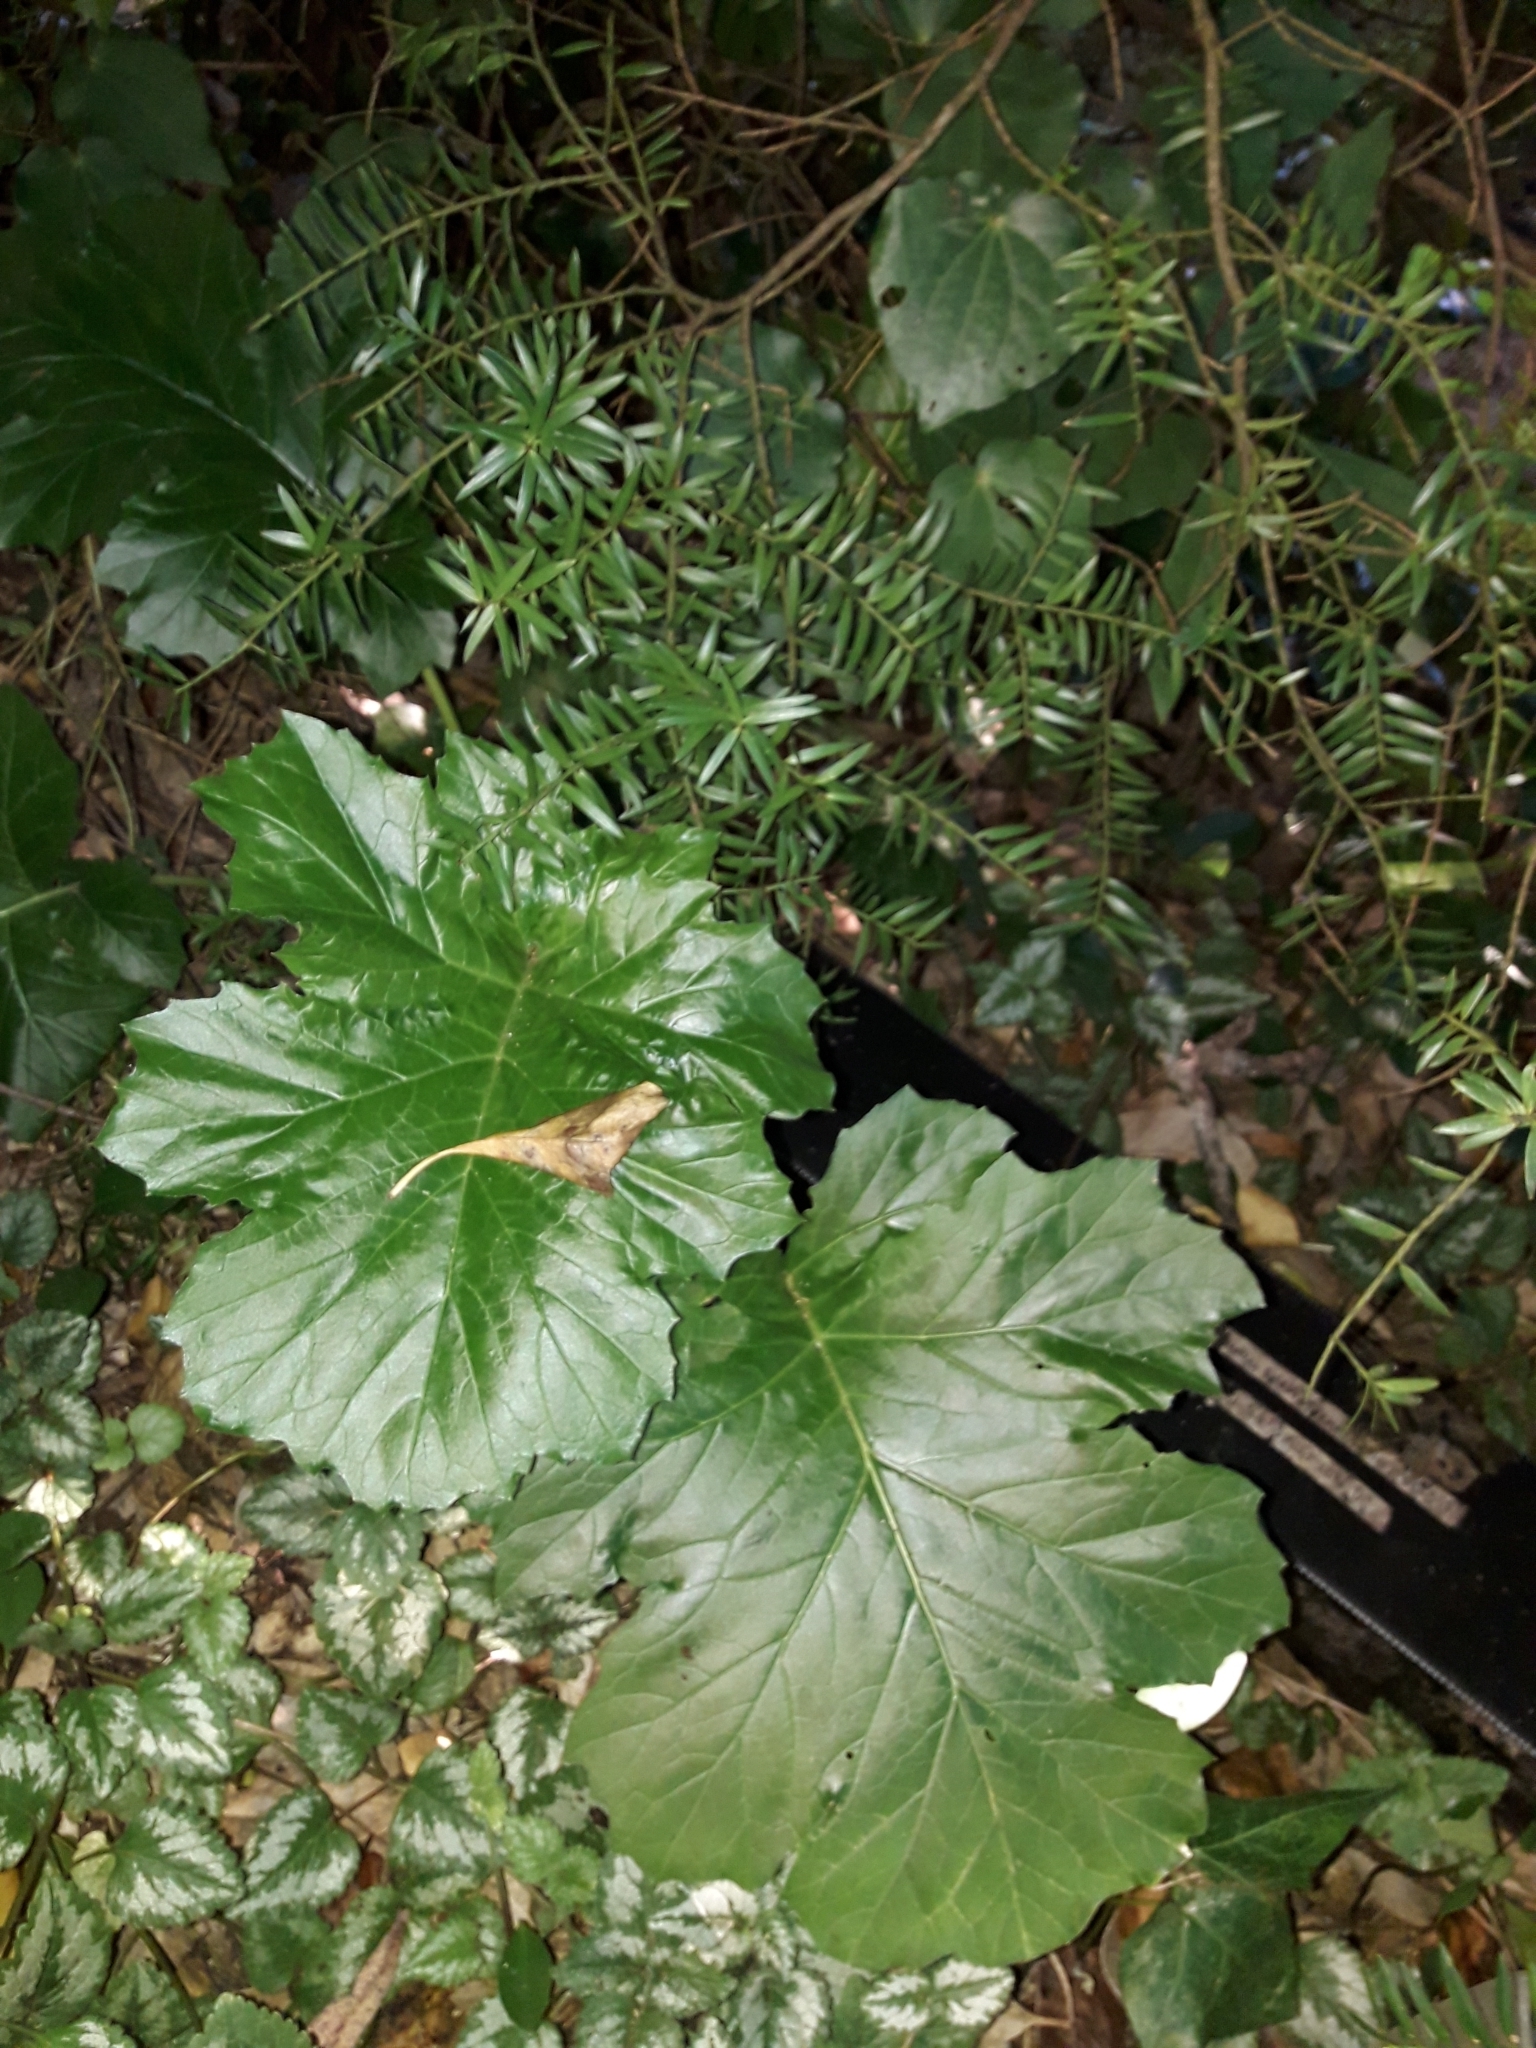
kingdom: Plantae
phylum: Tracheophyta
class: Magnoliopsida
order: Lamiales
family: Acanthaceae
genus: Acanthus
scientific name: Acanthus mollis
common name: Bear's-breech
